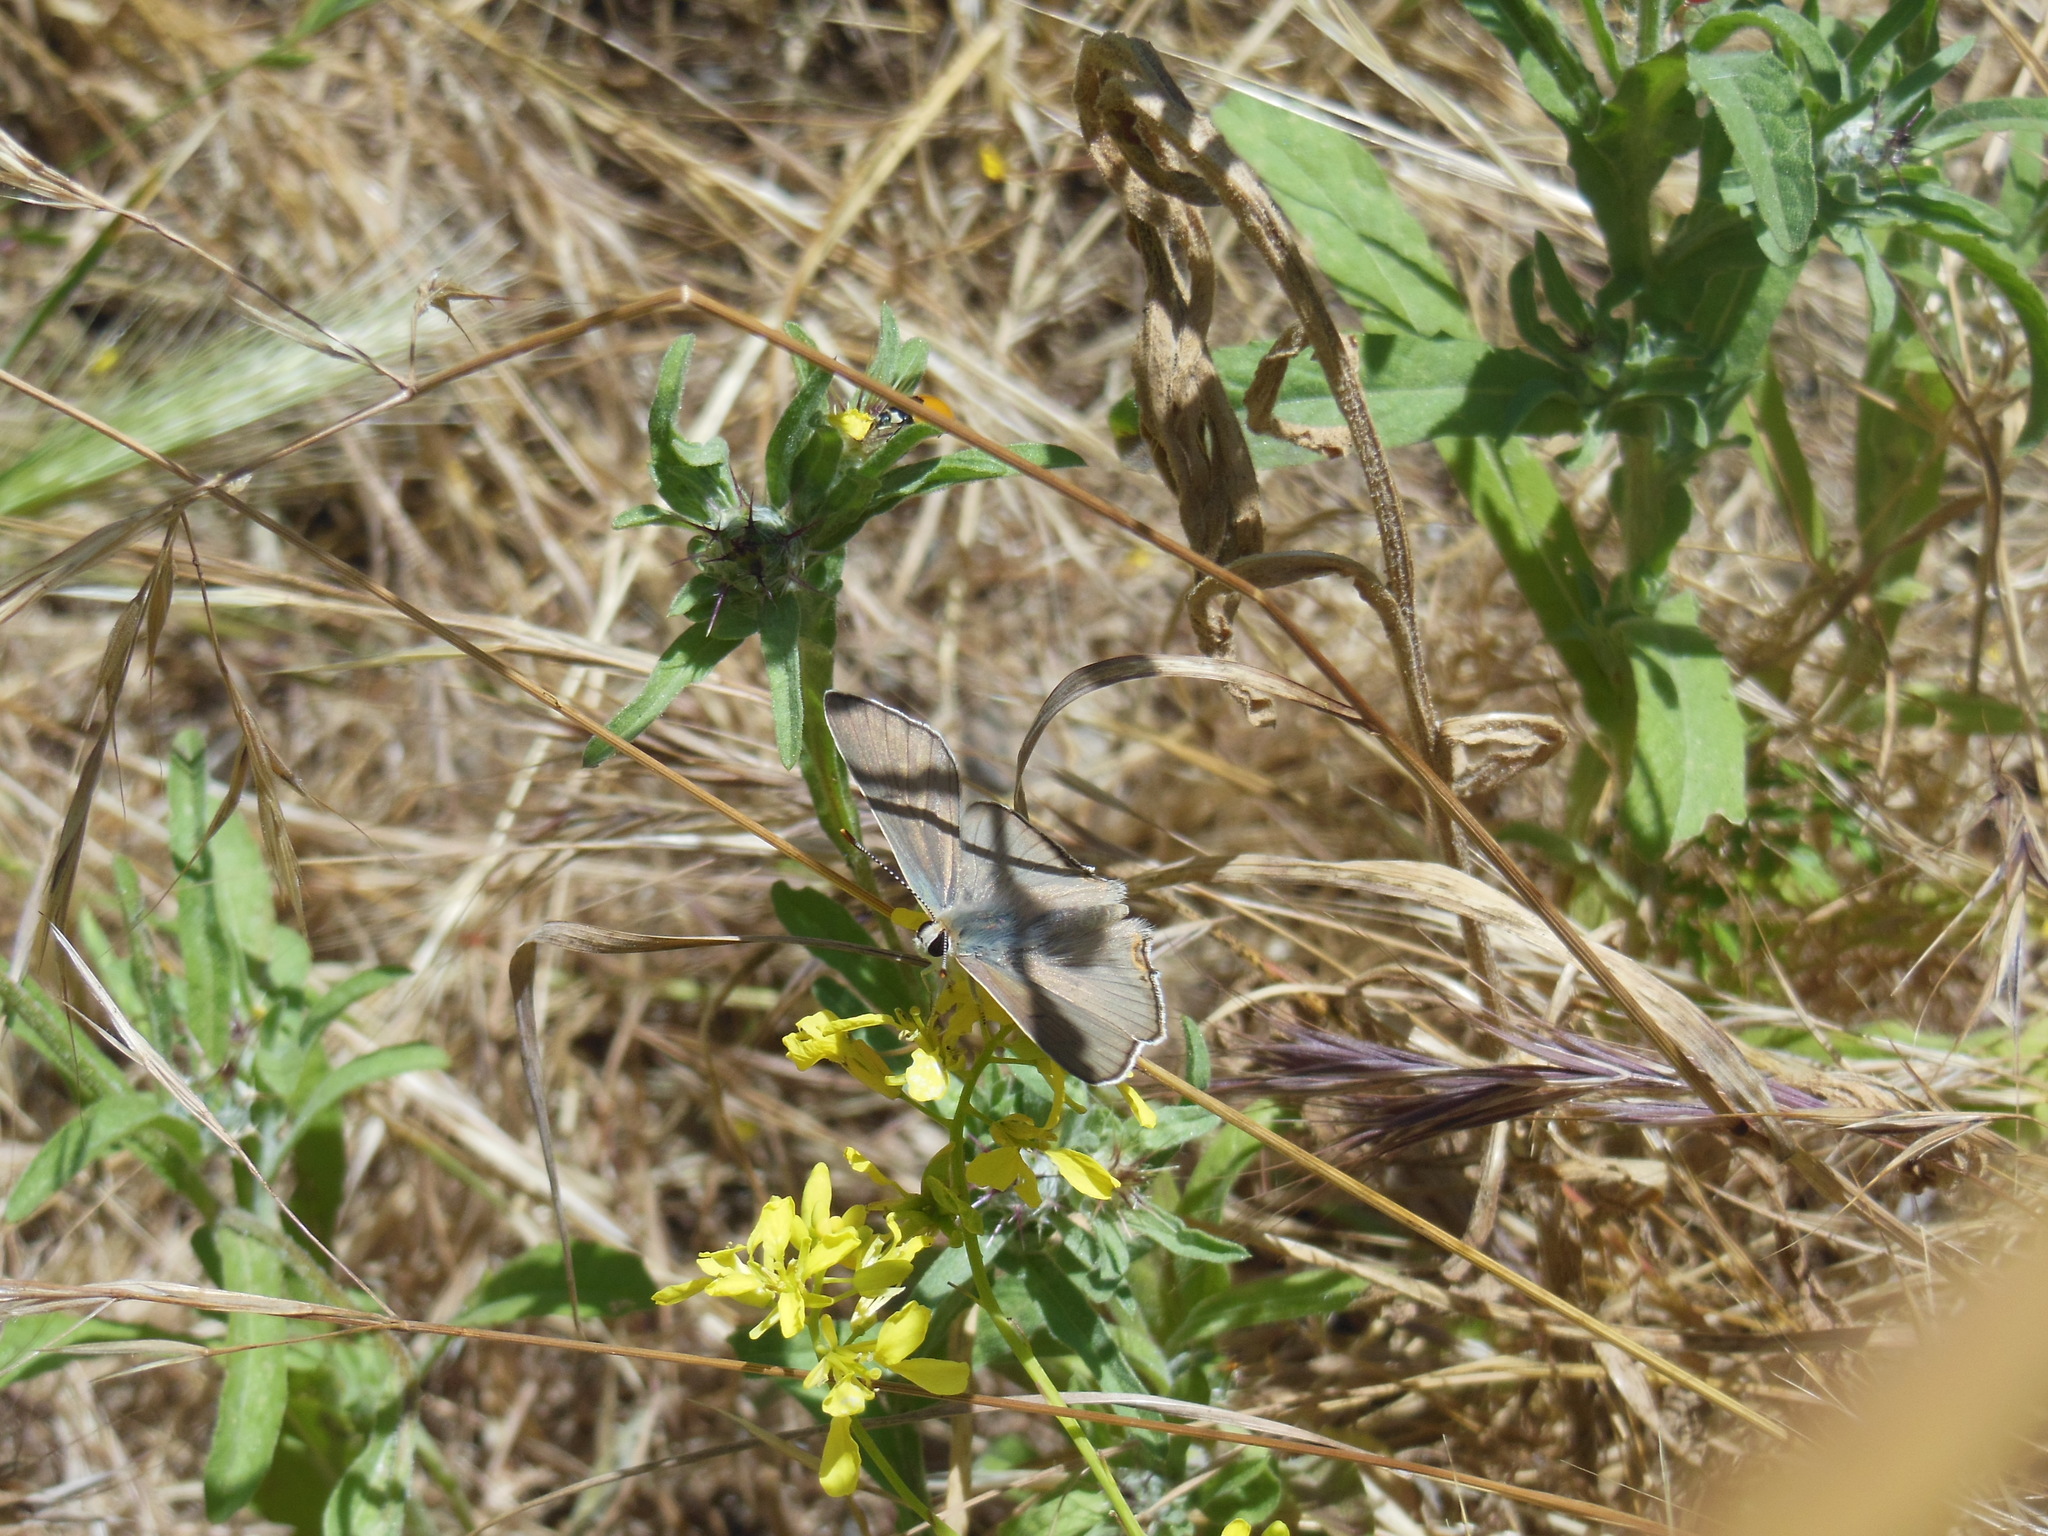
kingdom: Animalia
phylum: Arthropoda
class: Insecta
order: Lepidoptera
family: Lycaenidae
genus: Tharsalea
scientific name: Tharsalea xanthoides
